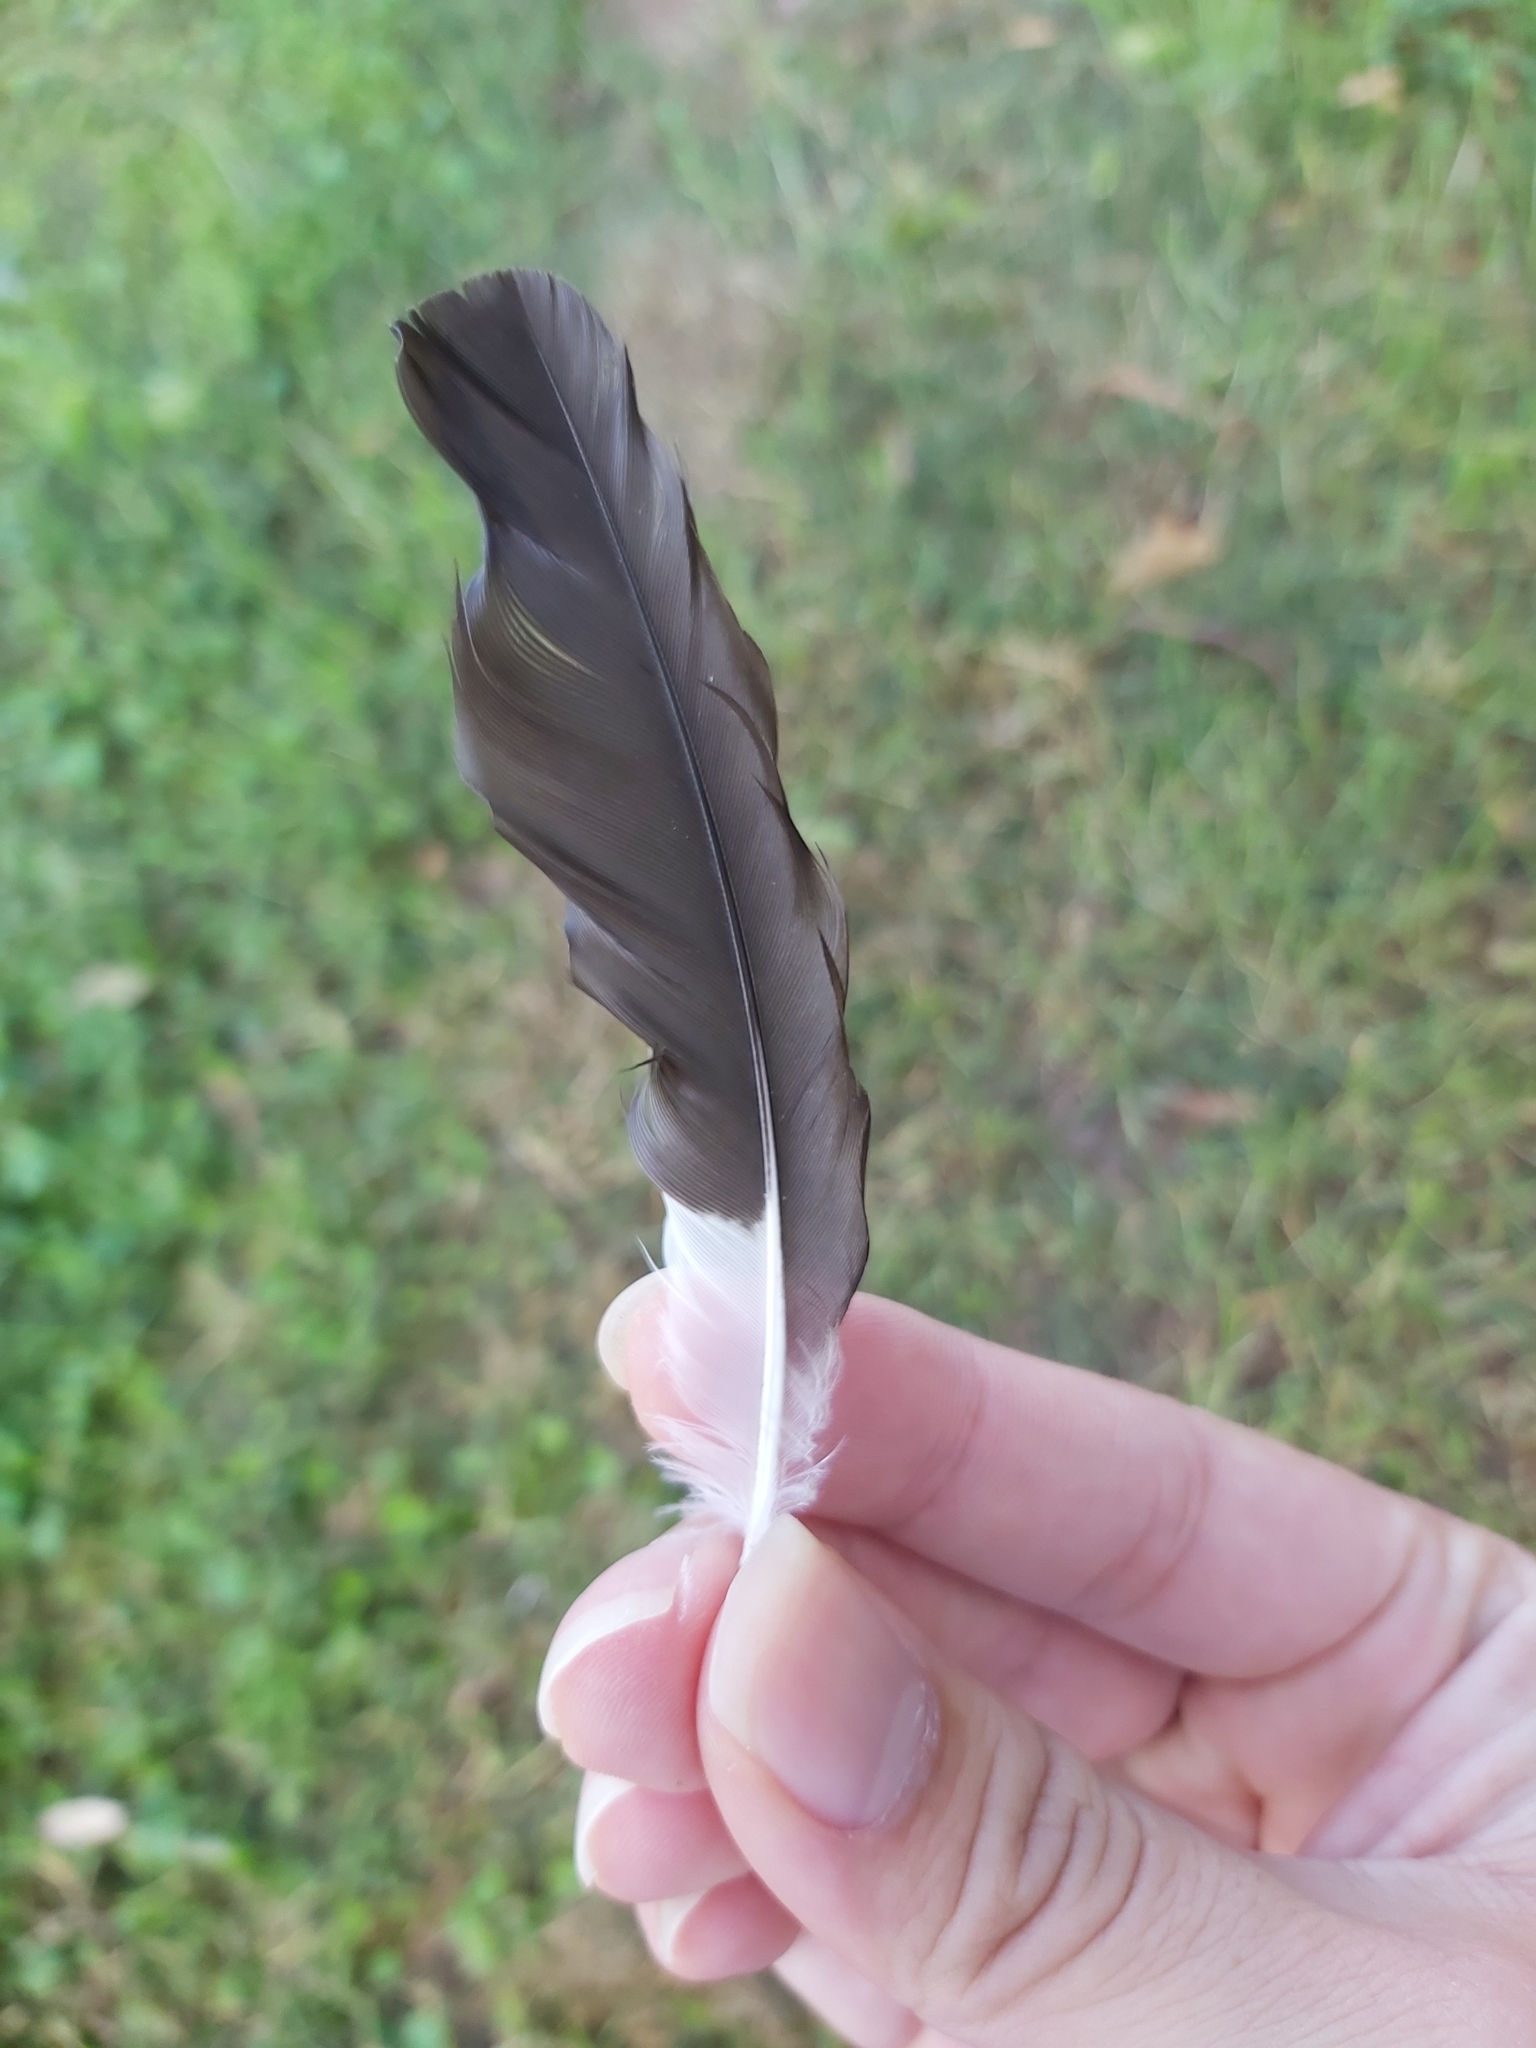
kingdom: Animalia
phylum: Chordata
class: Aves
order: Passeriformes
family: Sturnidae
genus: Acridotheres
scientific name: Acridotheres tristis
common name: Common myna
